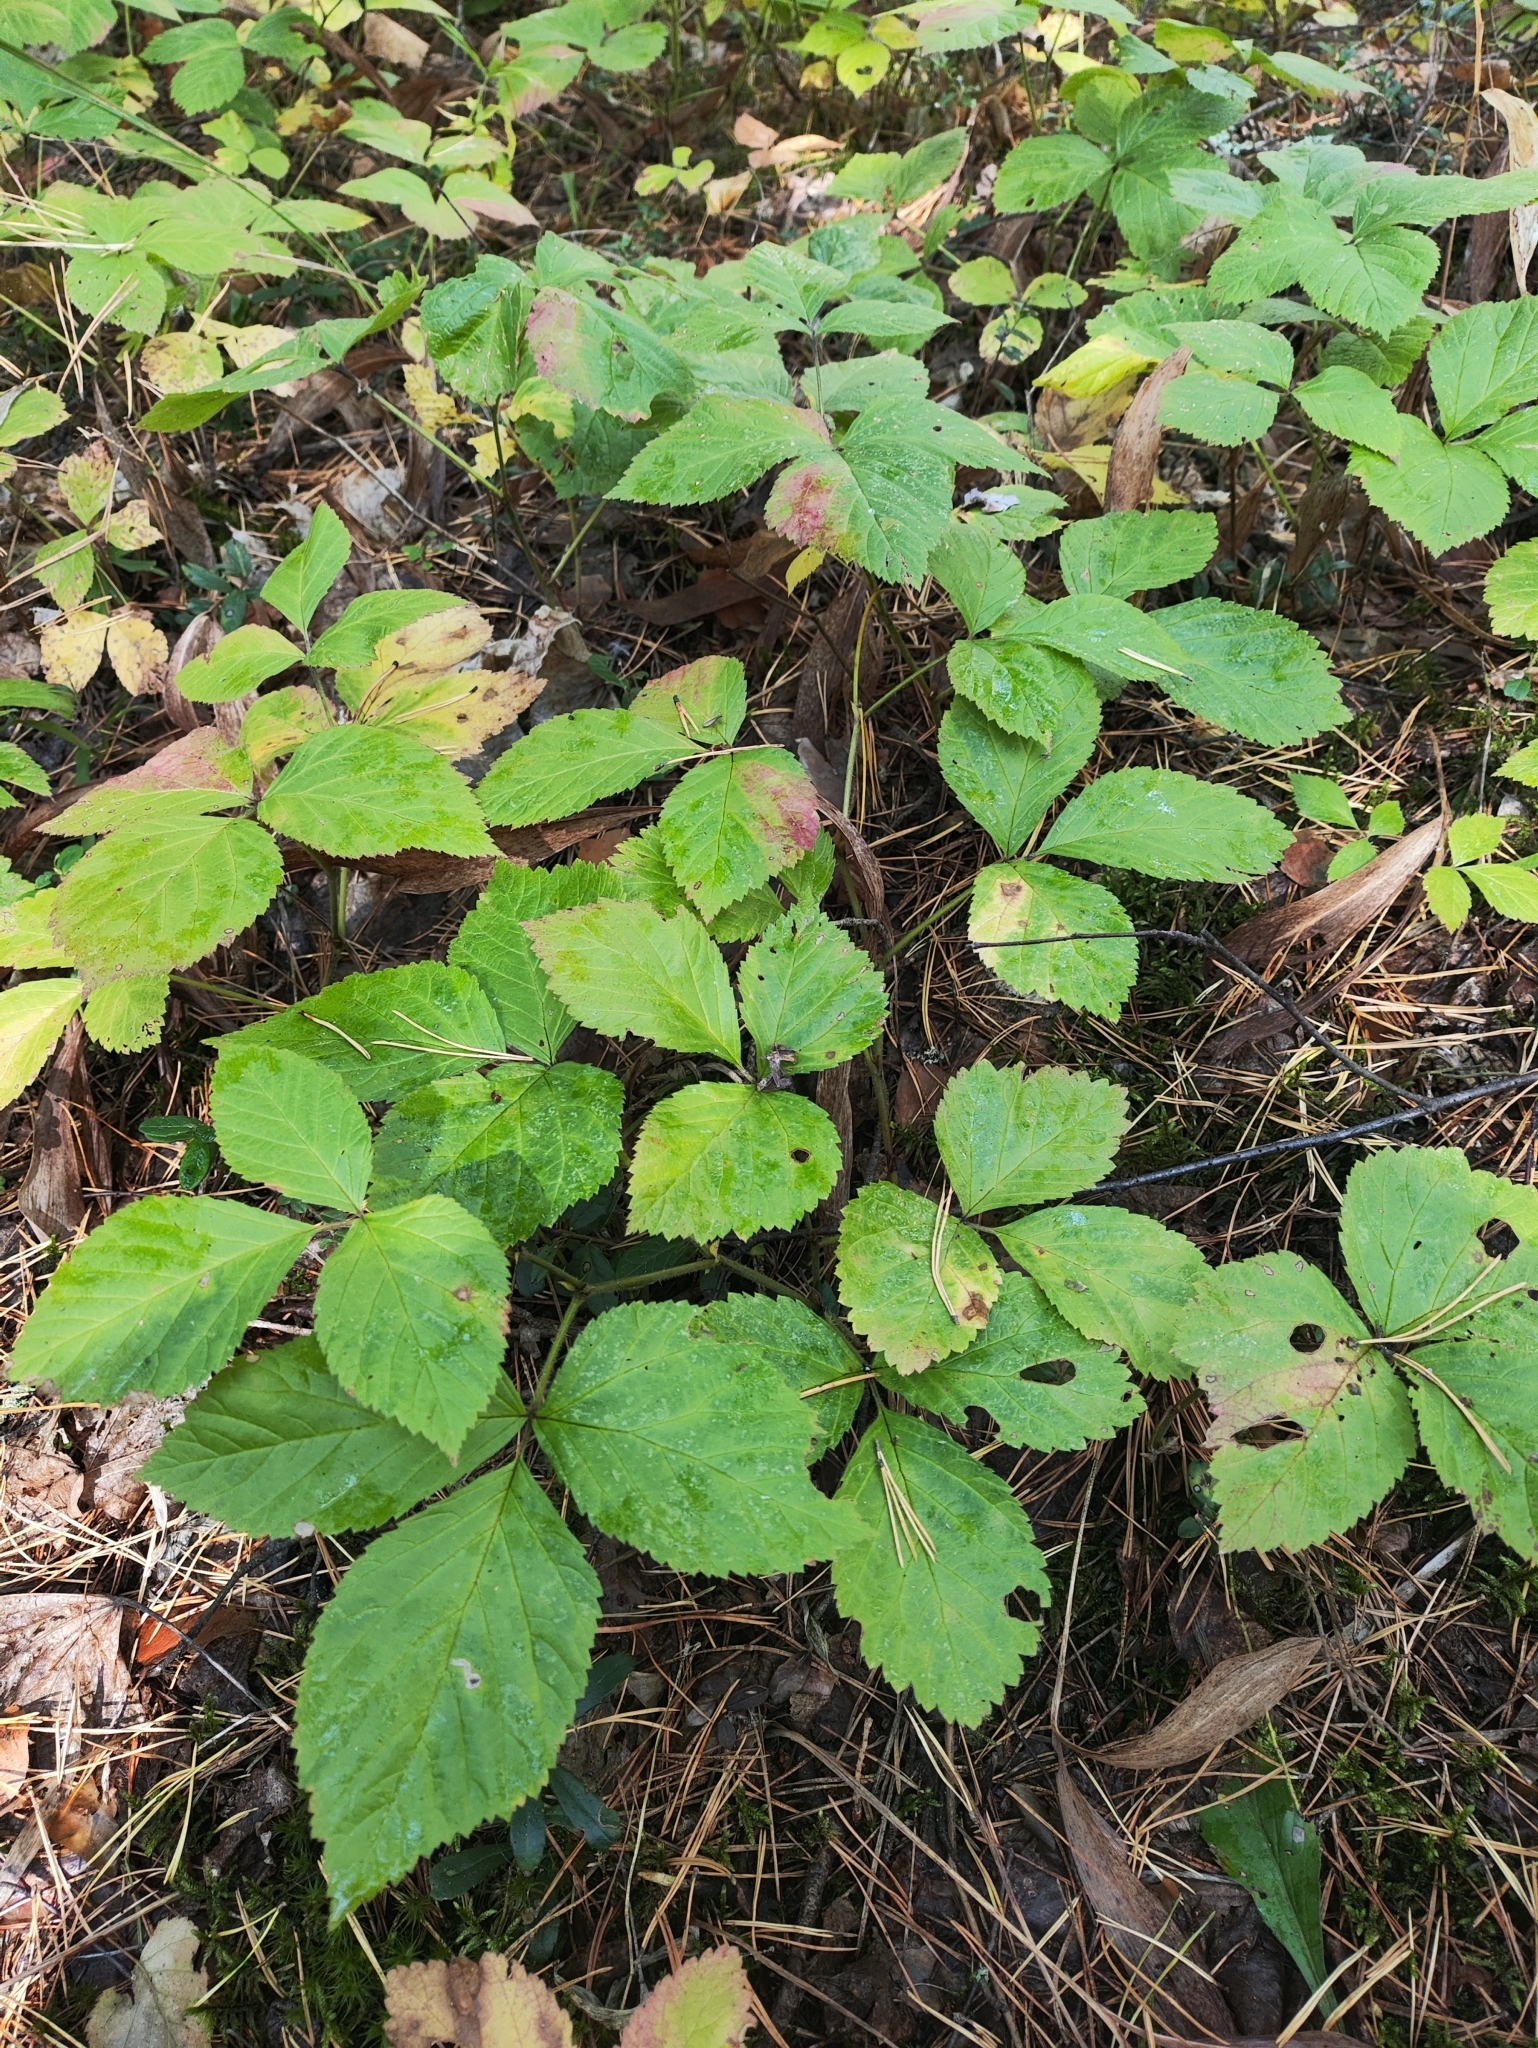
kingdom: Plantae
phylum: Tracheophyta
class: Magnoliopsida
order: Rosales
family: Rosaceae
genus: Rubus
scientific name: Rubus saxatilis
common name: Stone bramble
